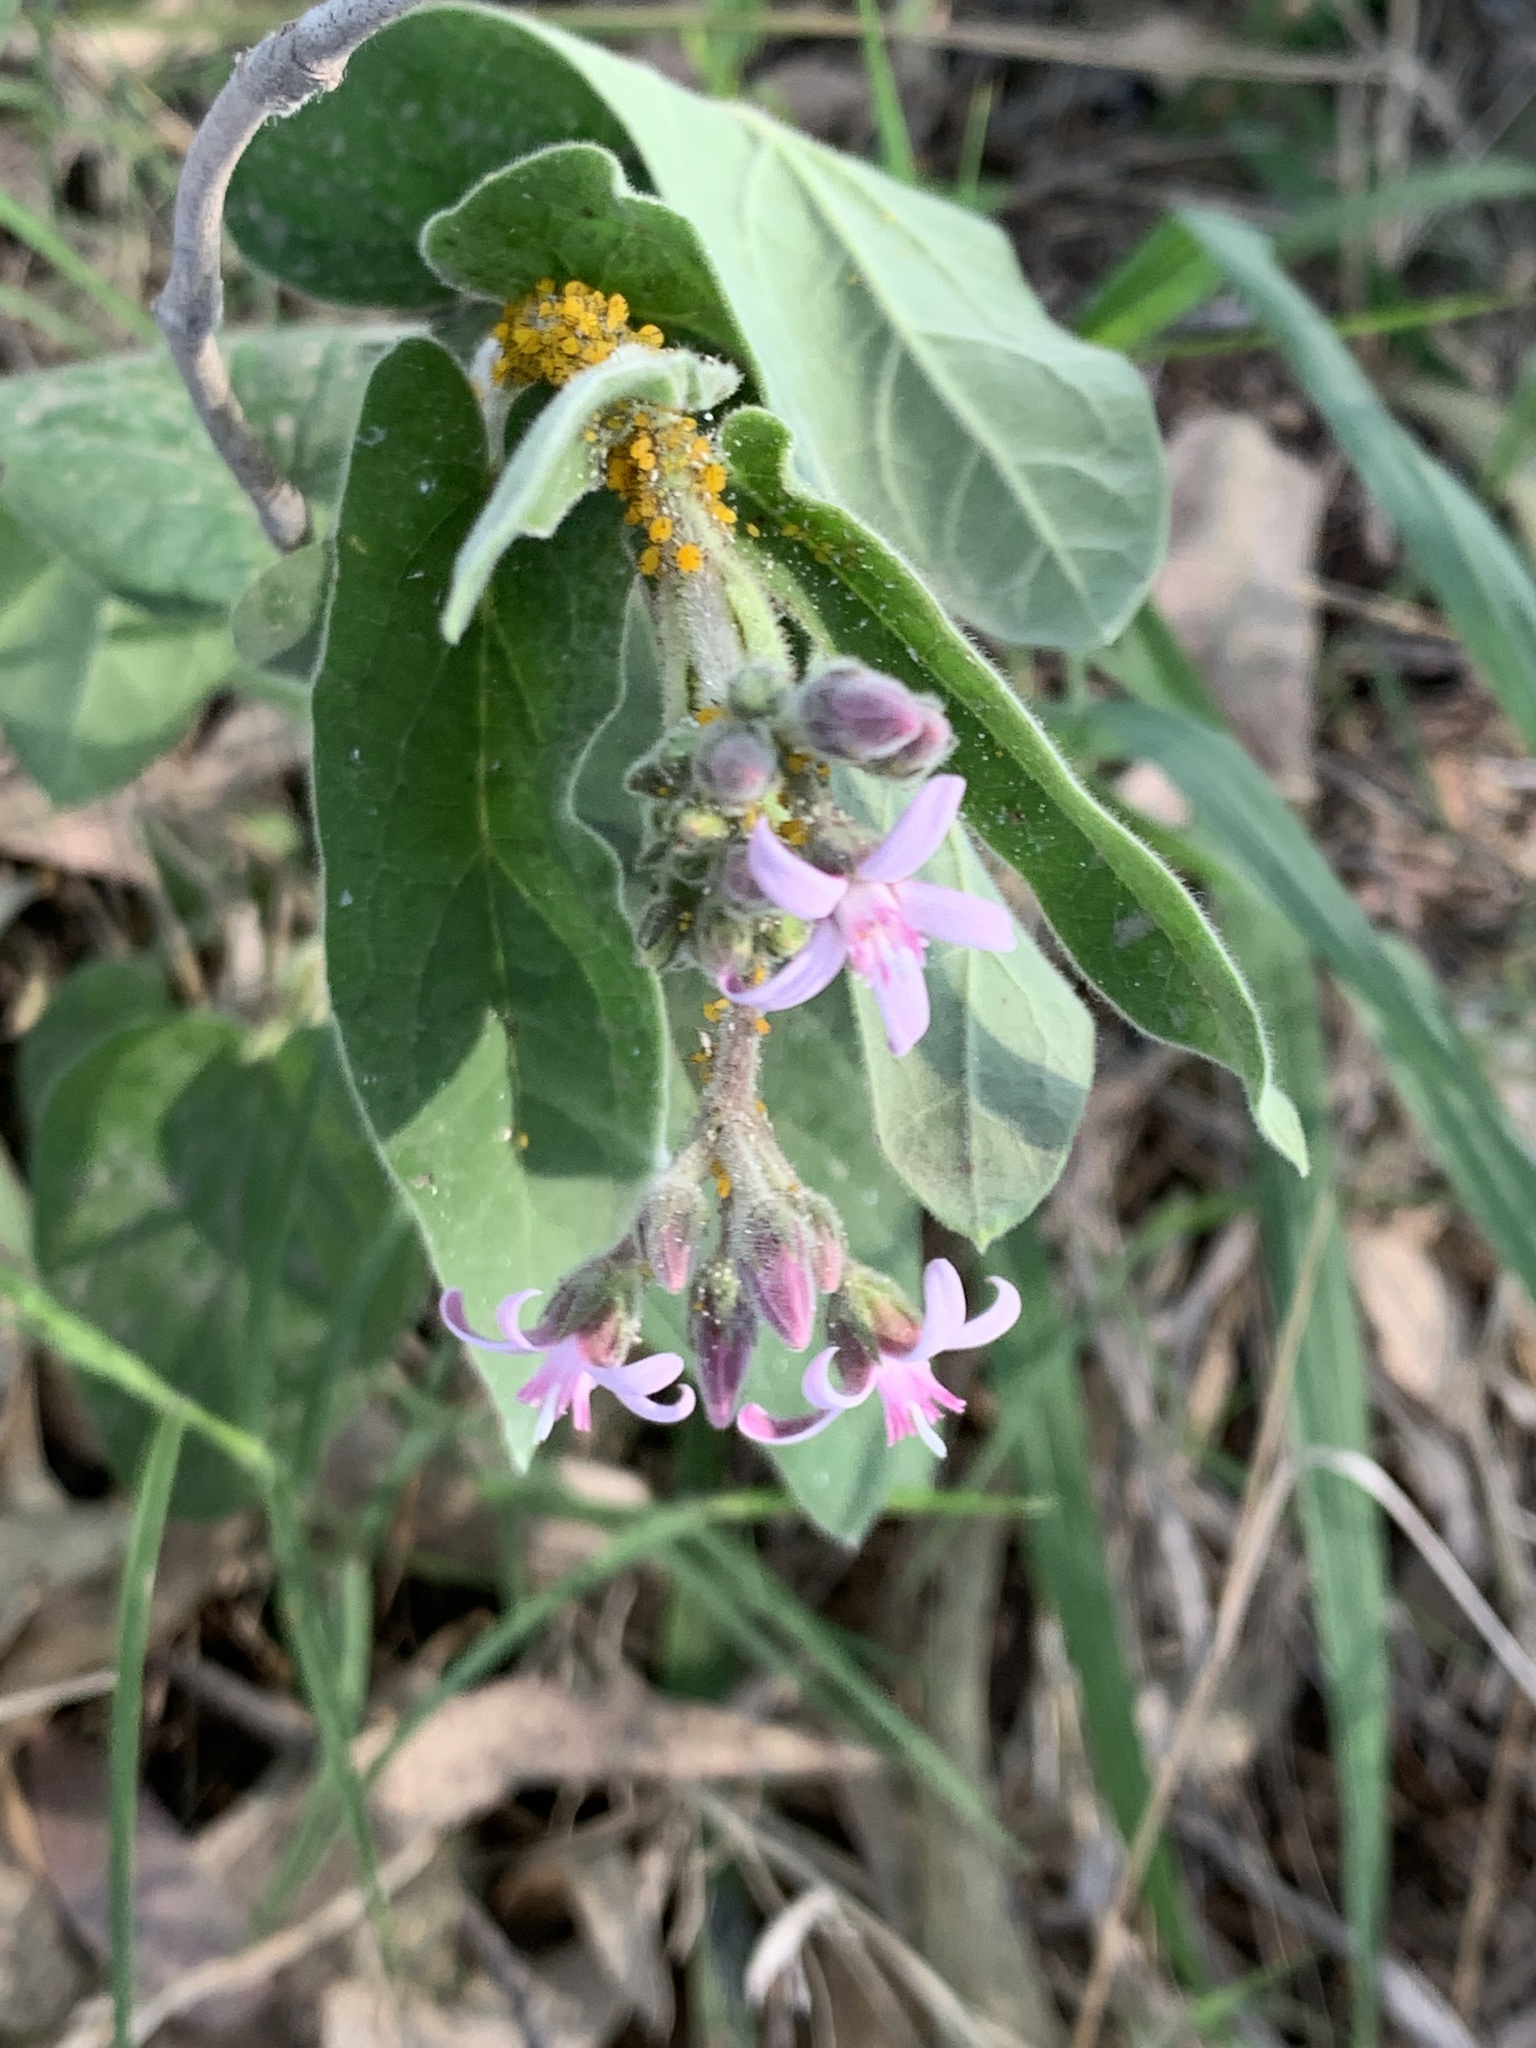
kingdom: Plantae
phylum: Tracheophyta
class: Magnoliopsida
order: Gentianales
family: Apocynaceae
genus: Oxypetalum
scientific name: Oxypetalum solanoides
